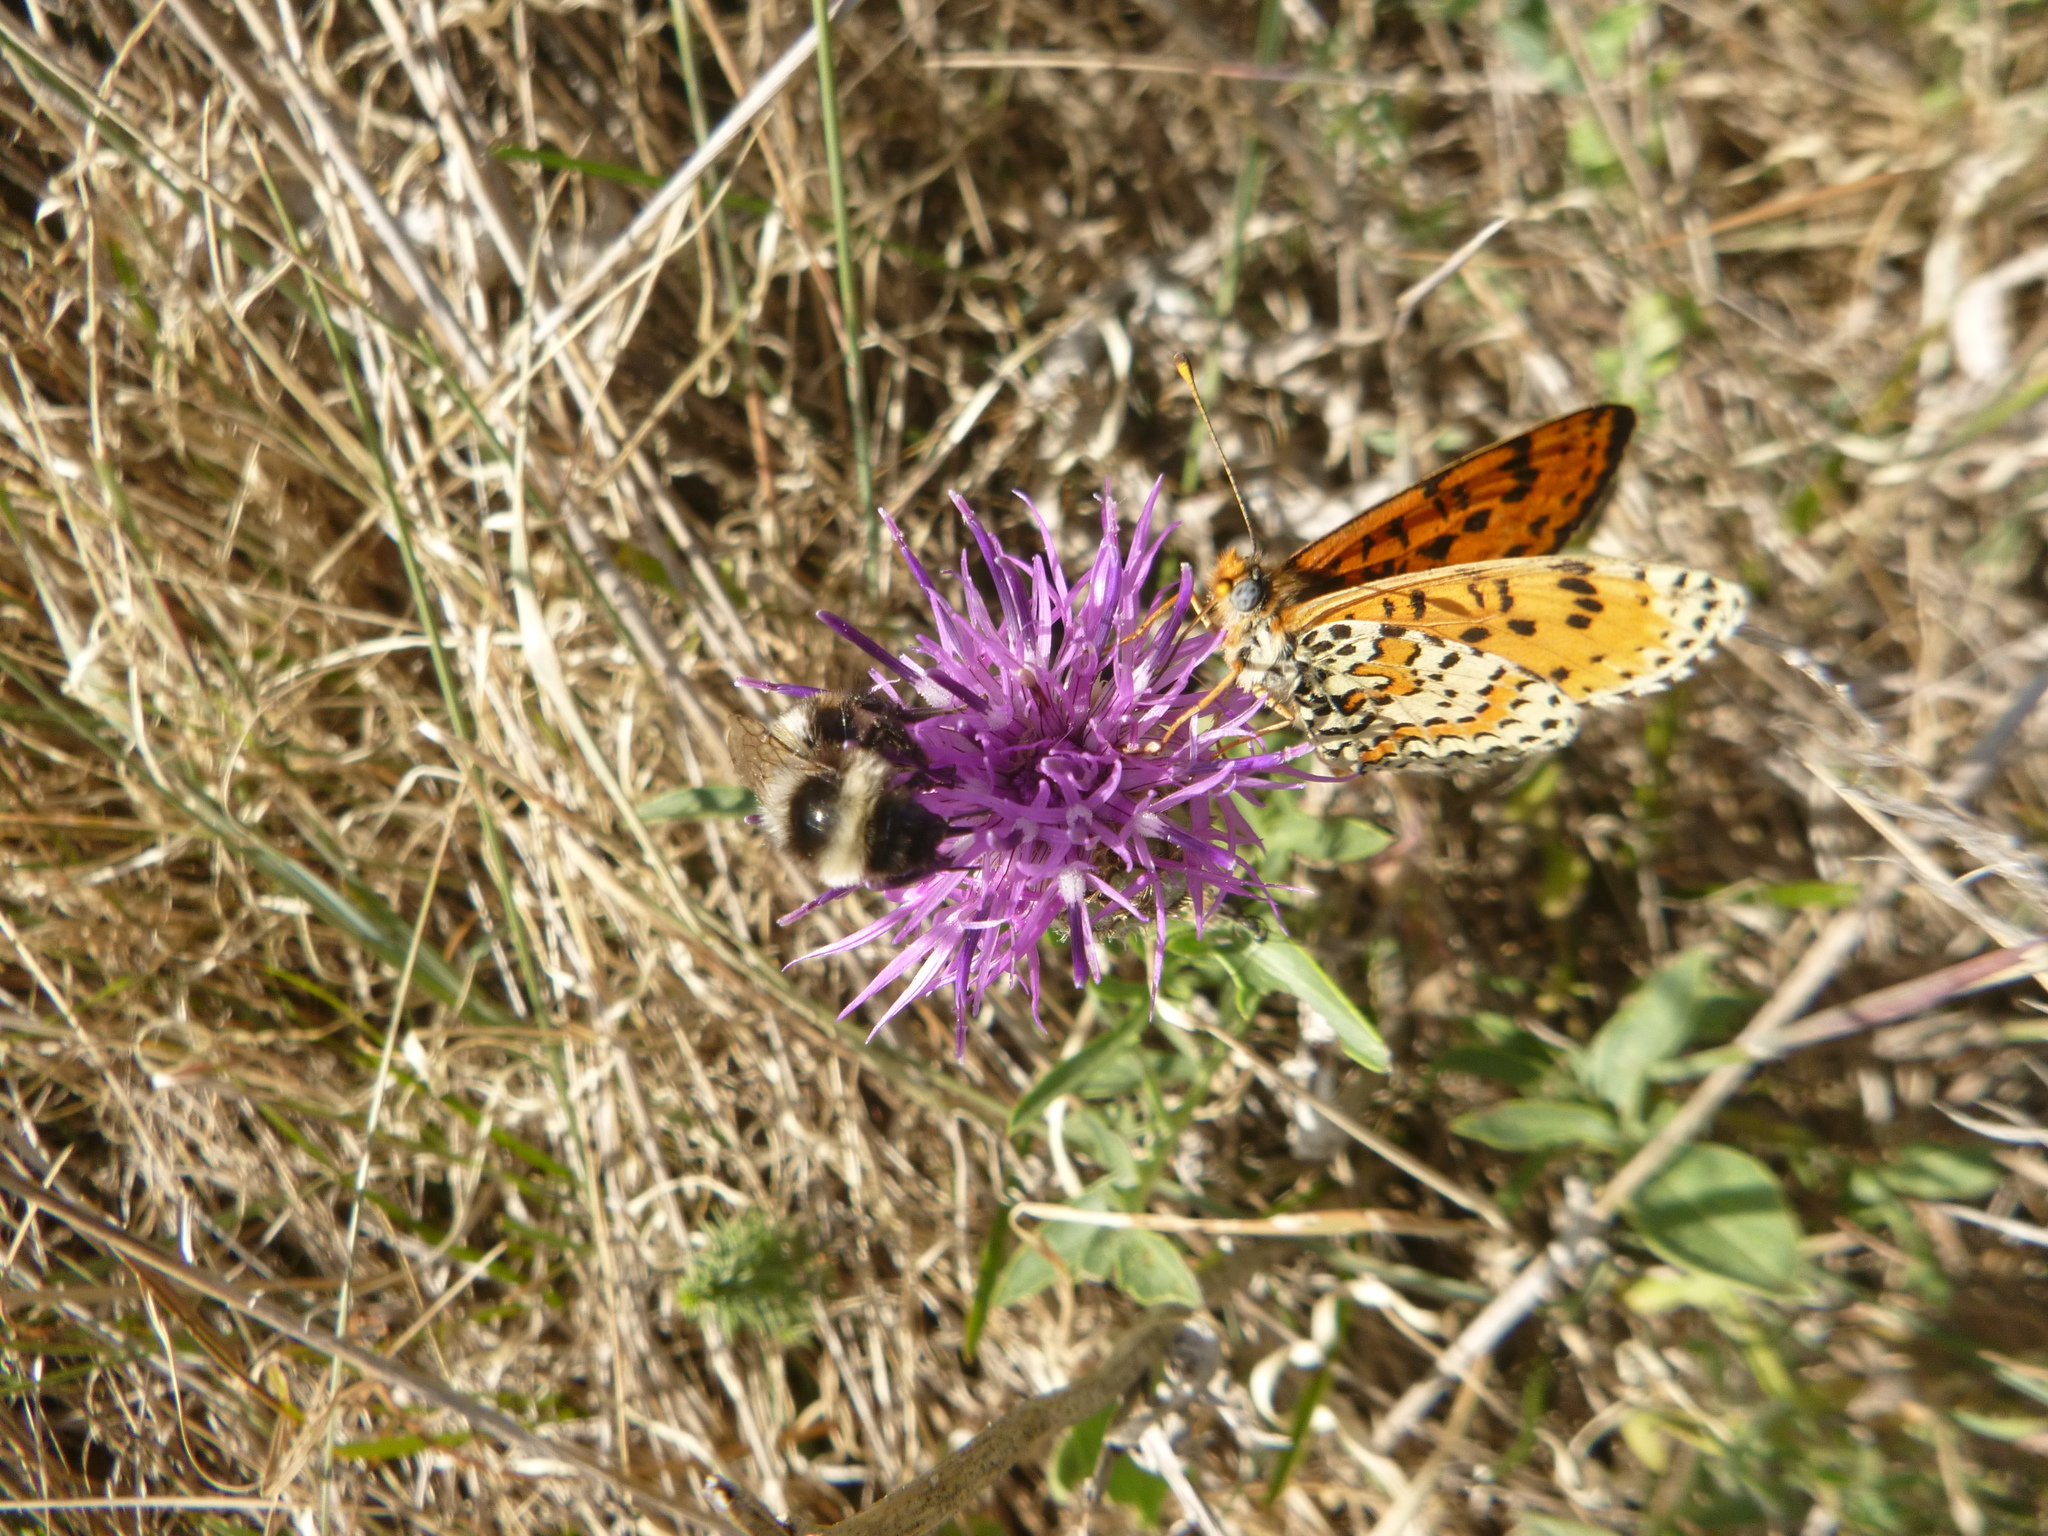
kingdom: Animalia
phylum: Arthropoda
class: Insecta
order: Lepidoptera
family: Nymphalidae
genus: Melitaea
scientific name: Melitaea didyma
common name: Spotted fritillary
